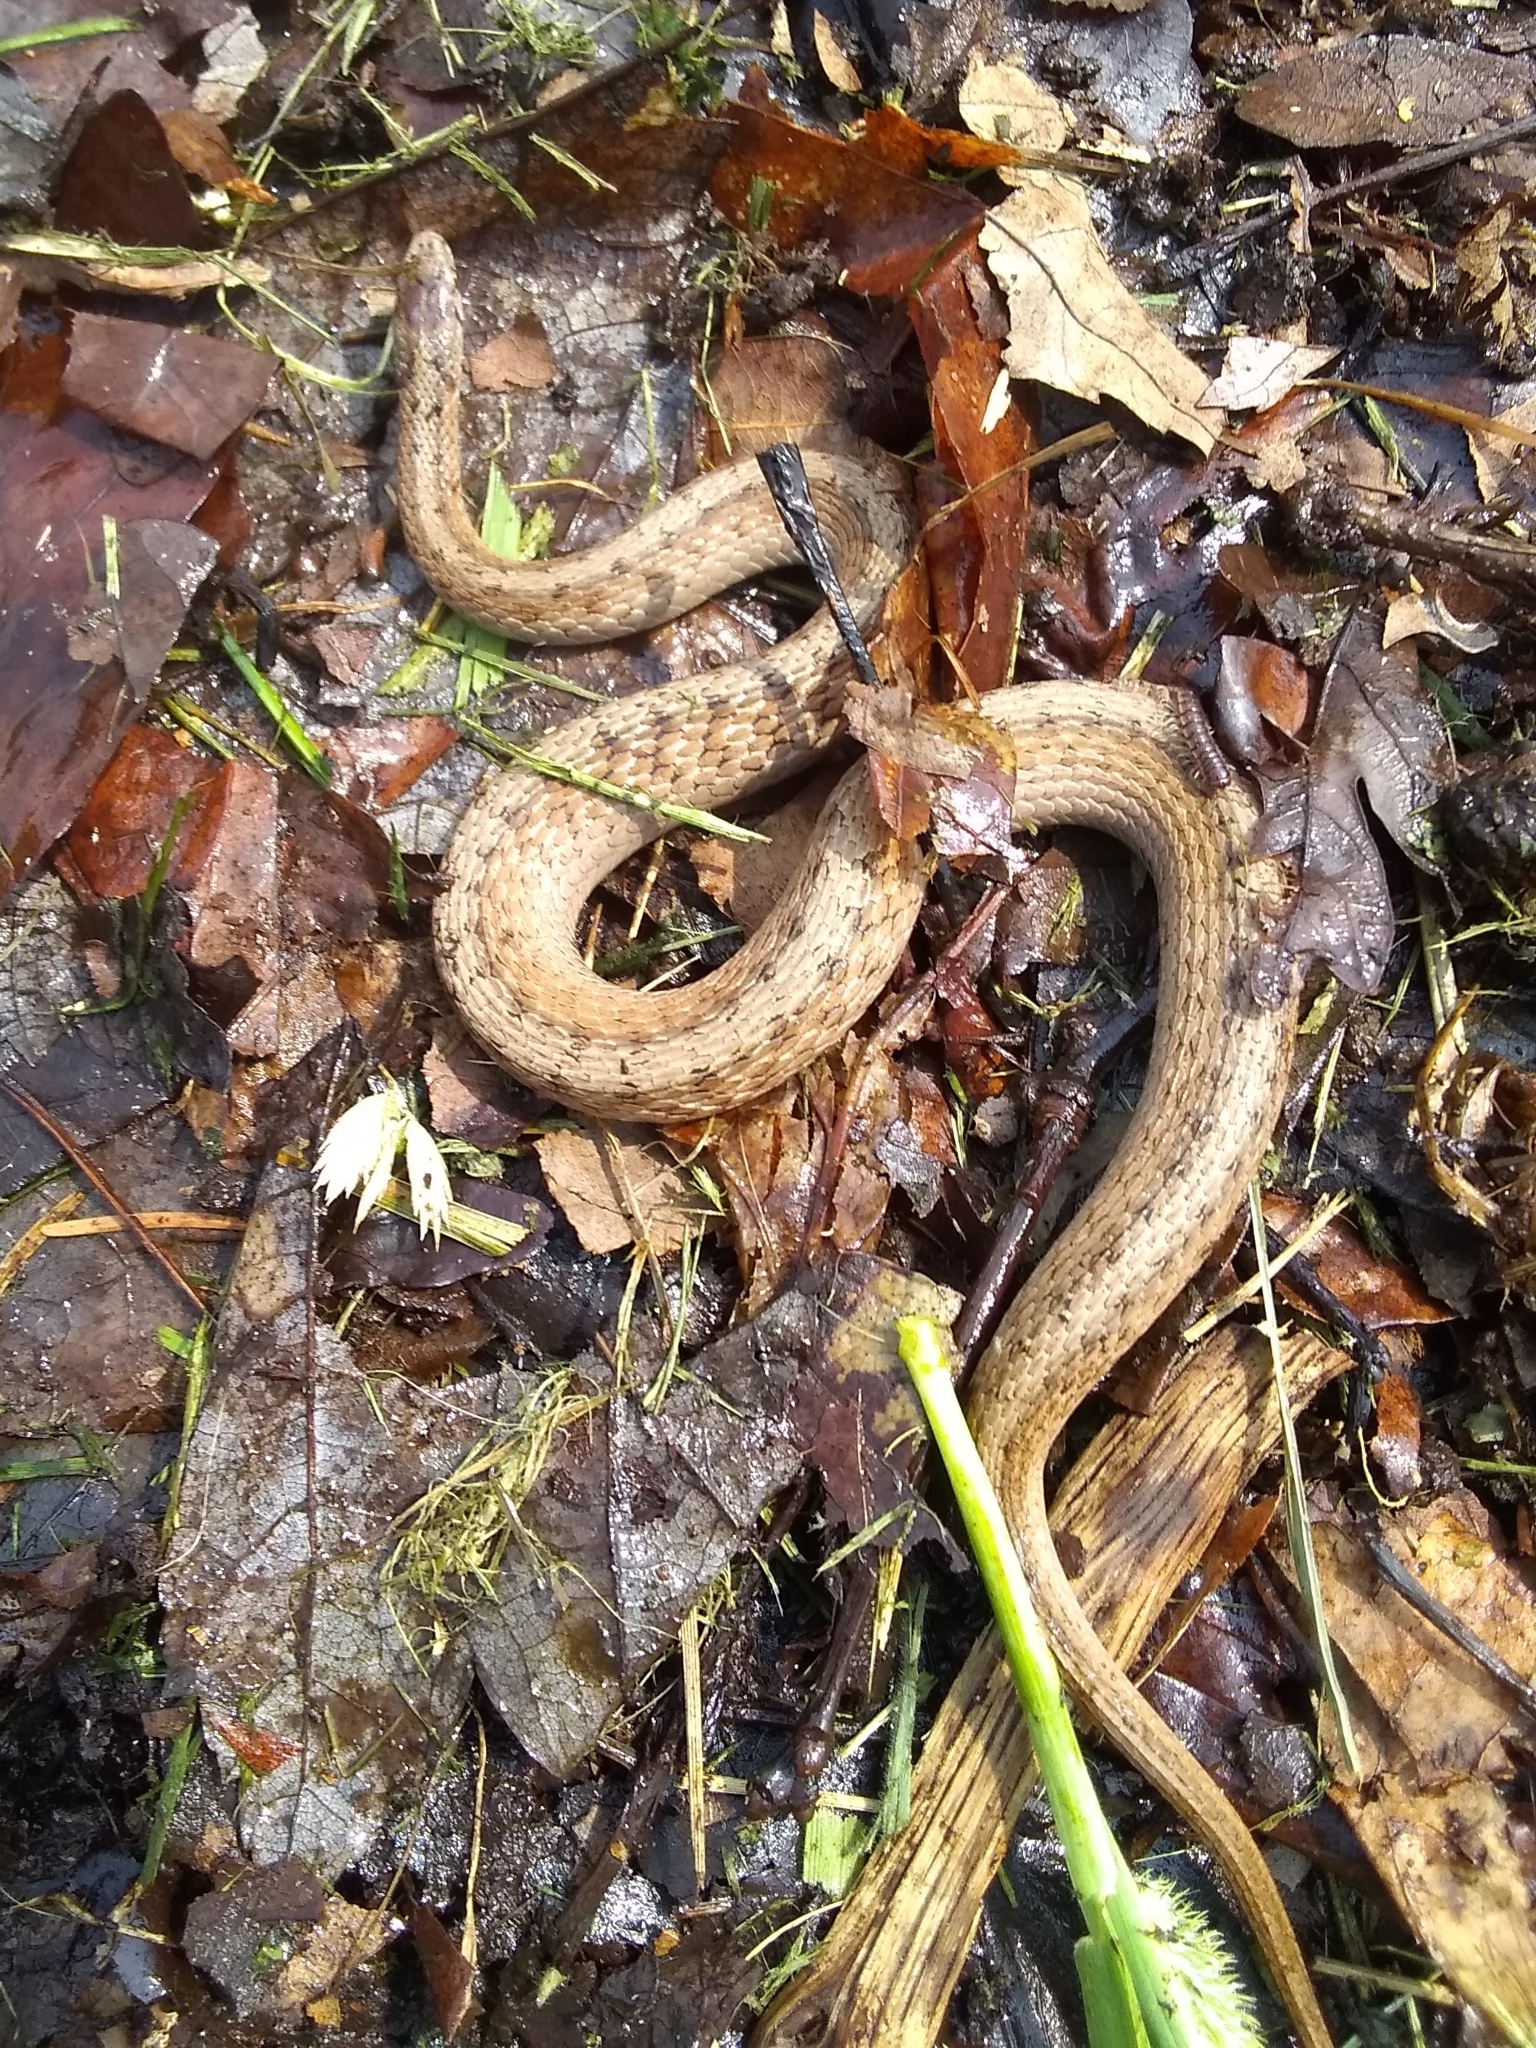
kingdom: Animalia
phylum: Chordata
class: Squamata
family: Colubridae
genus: Storeria
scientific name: Storeria dekayi
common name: (dekay’s) brown snake
